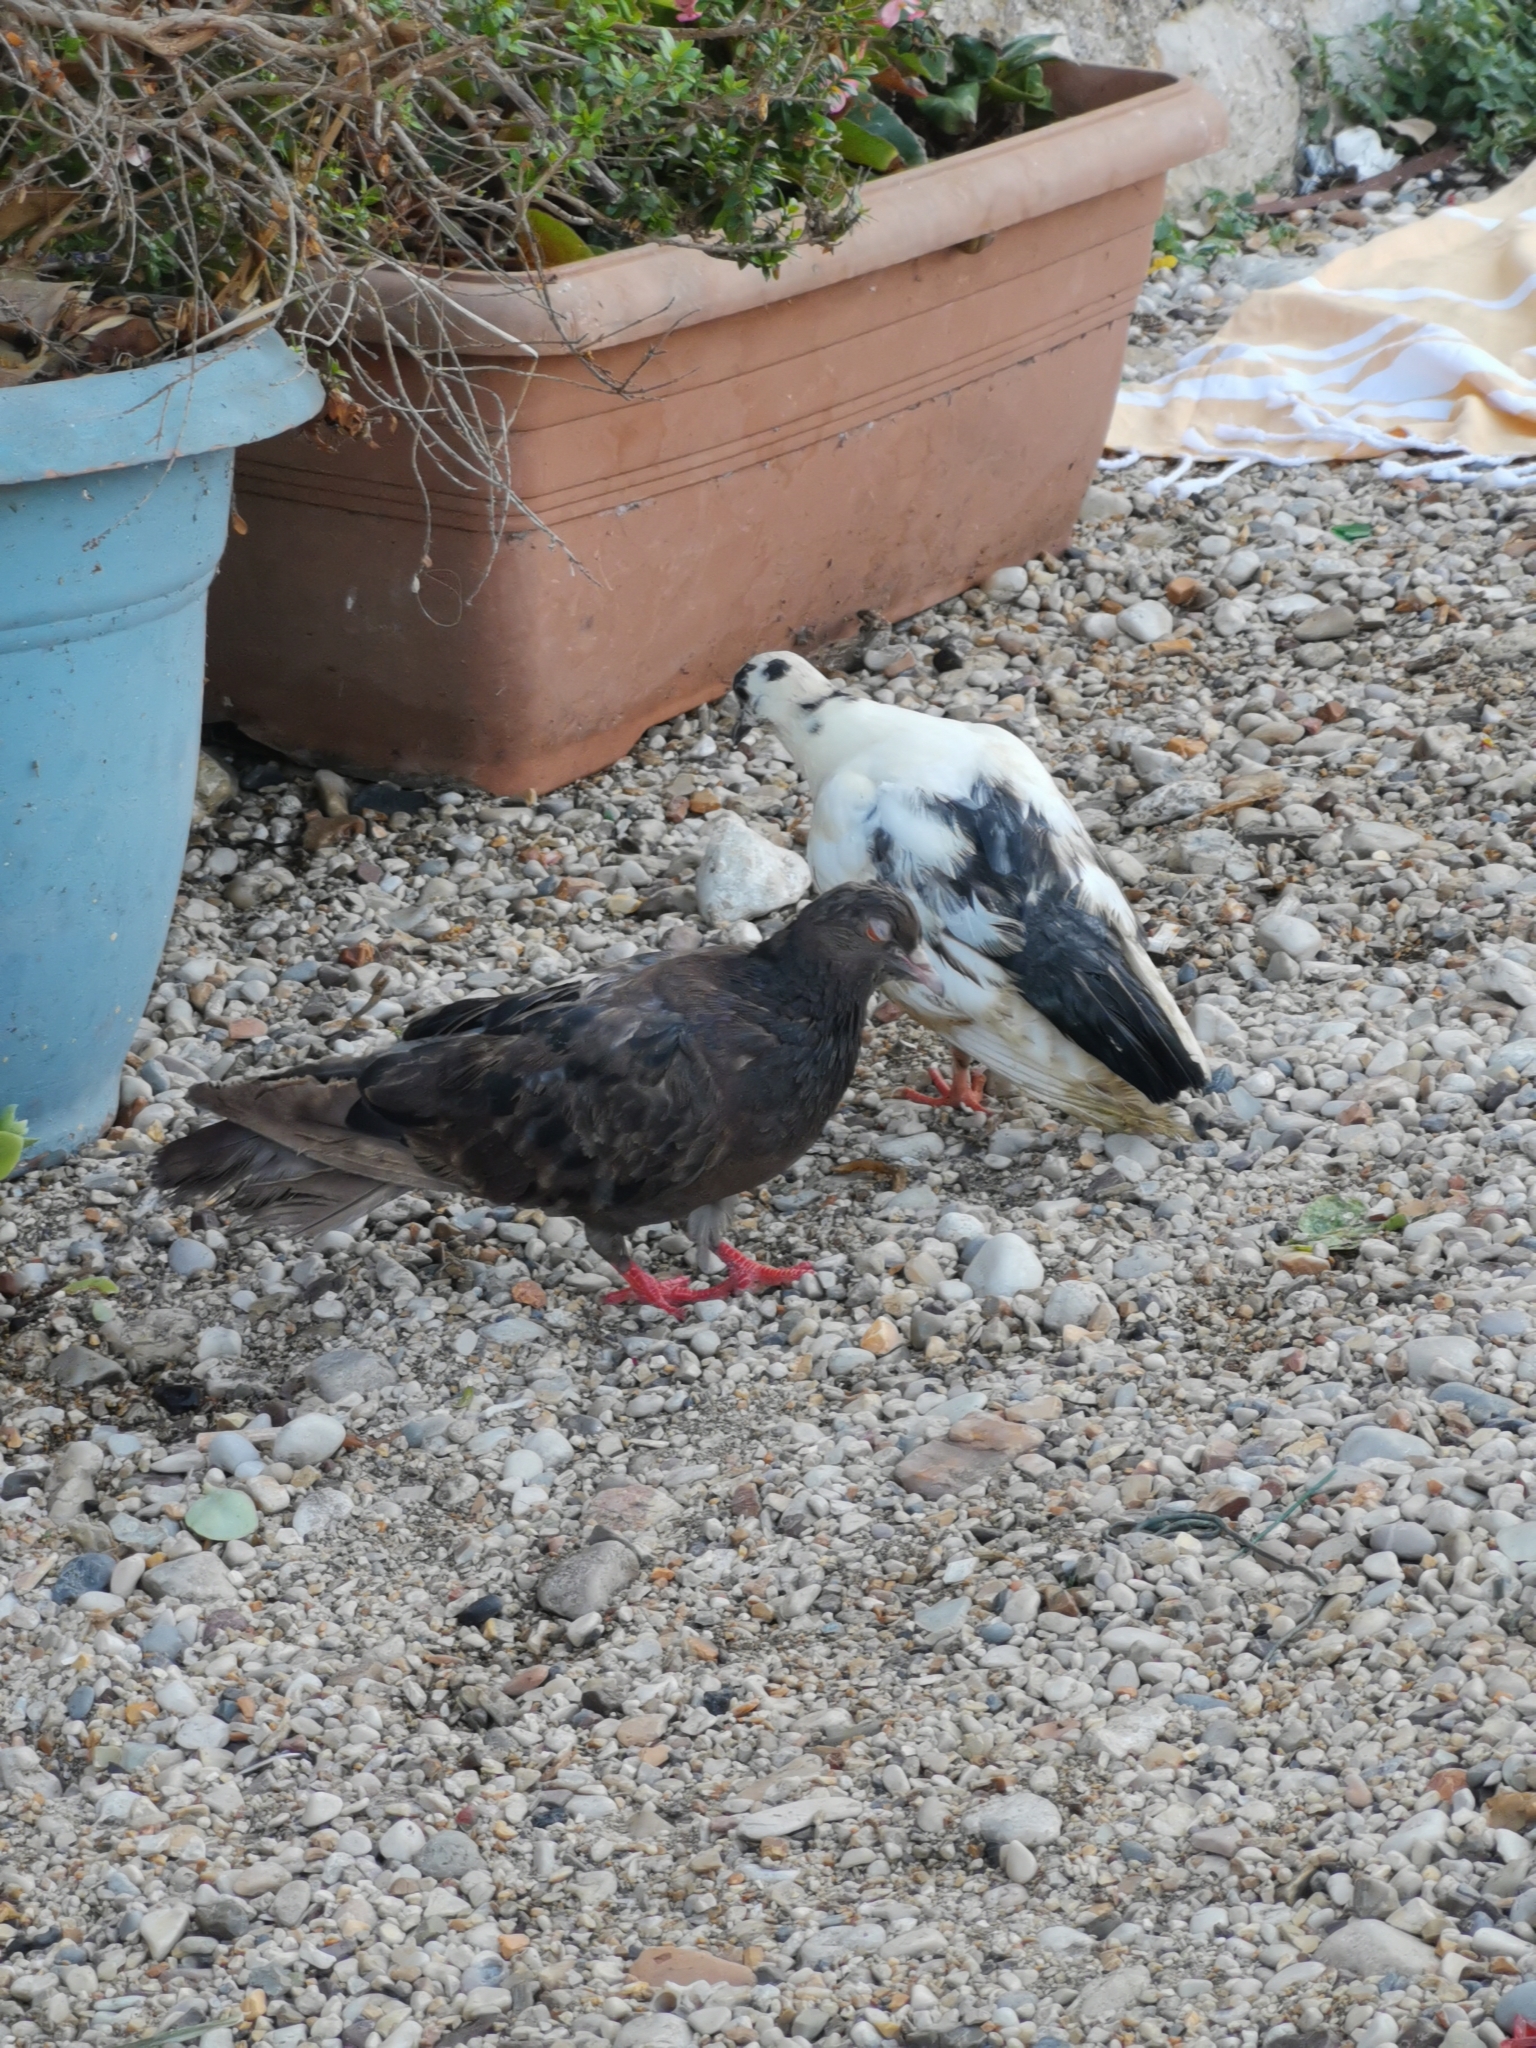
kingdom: Animalia
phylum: Chordata
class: Aves
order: Columbiformes
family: Columbidae
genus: Columba
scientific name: Columba livia
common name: Rock pigeon
